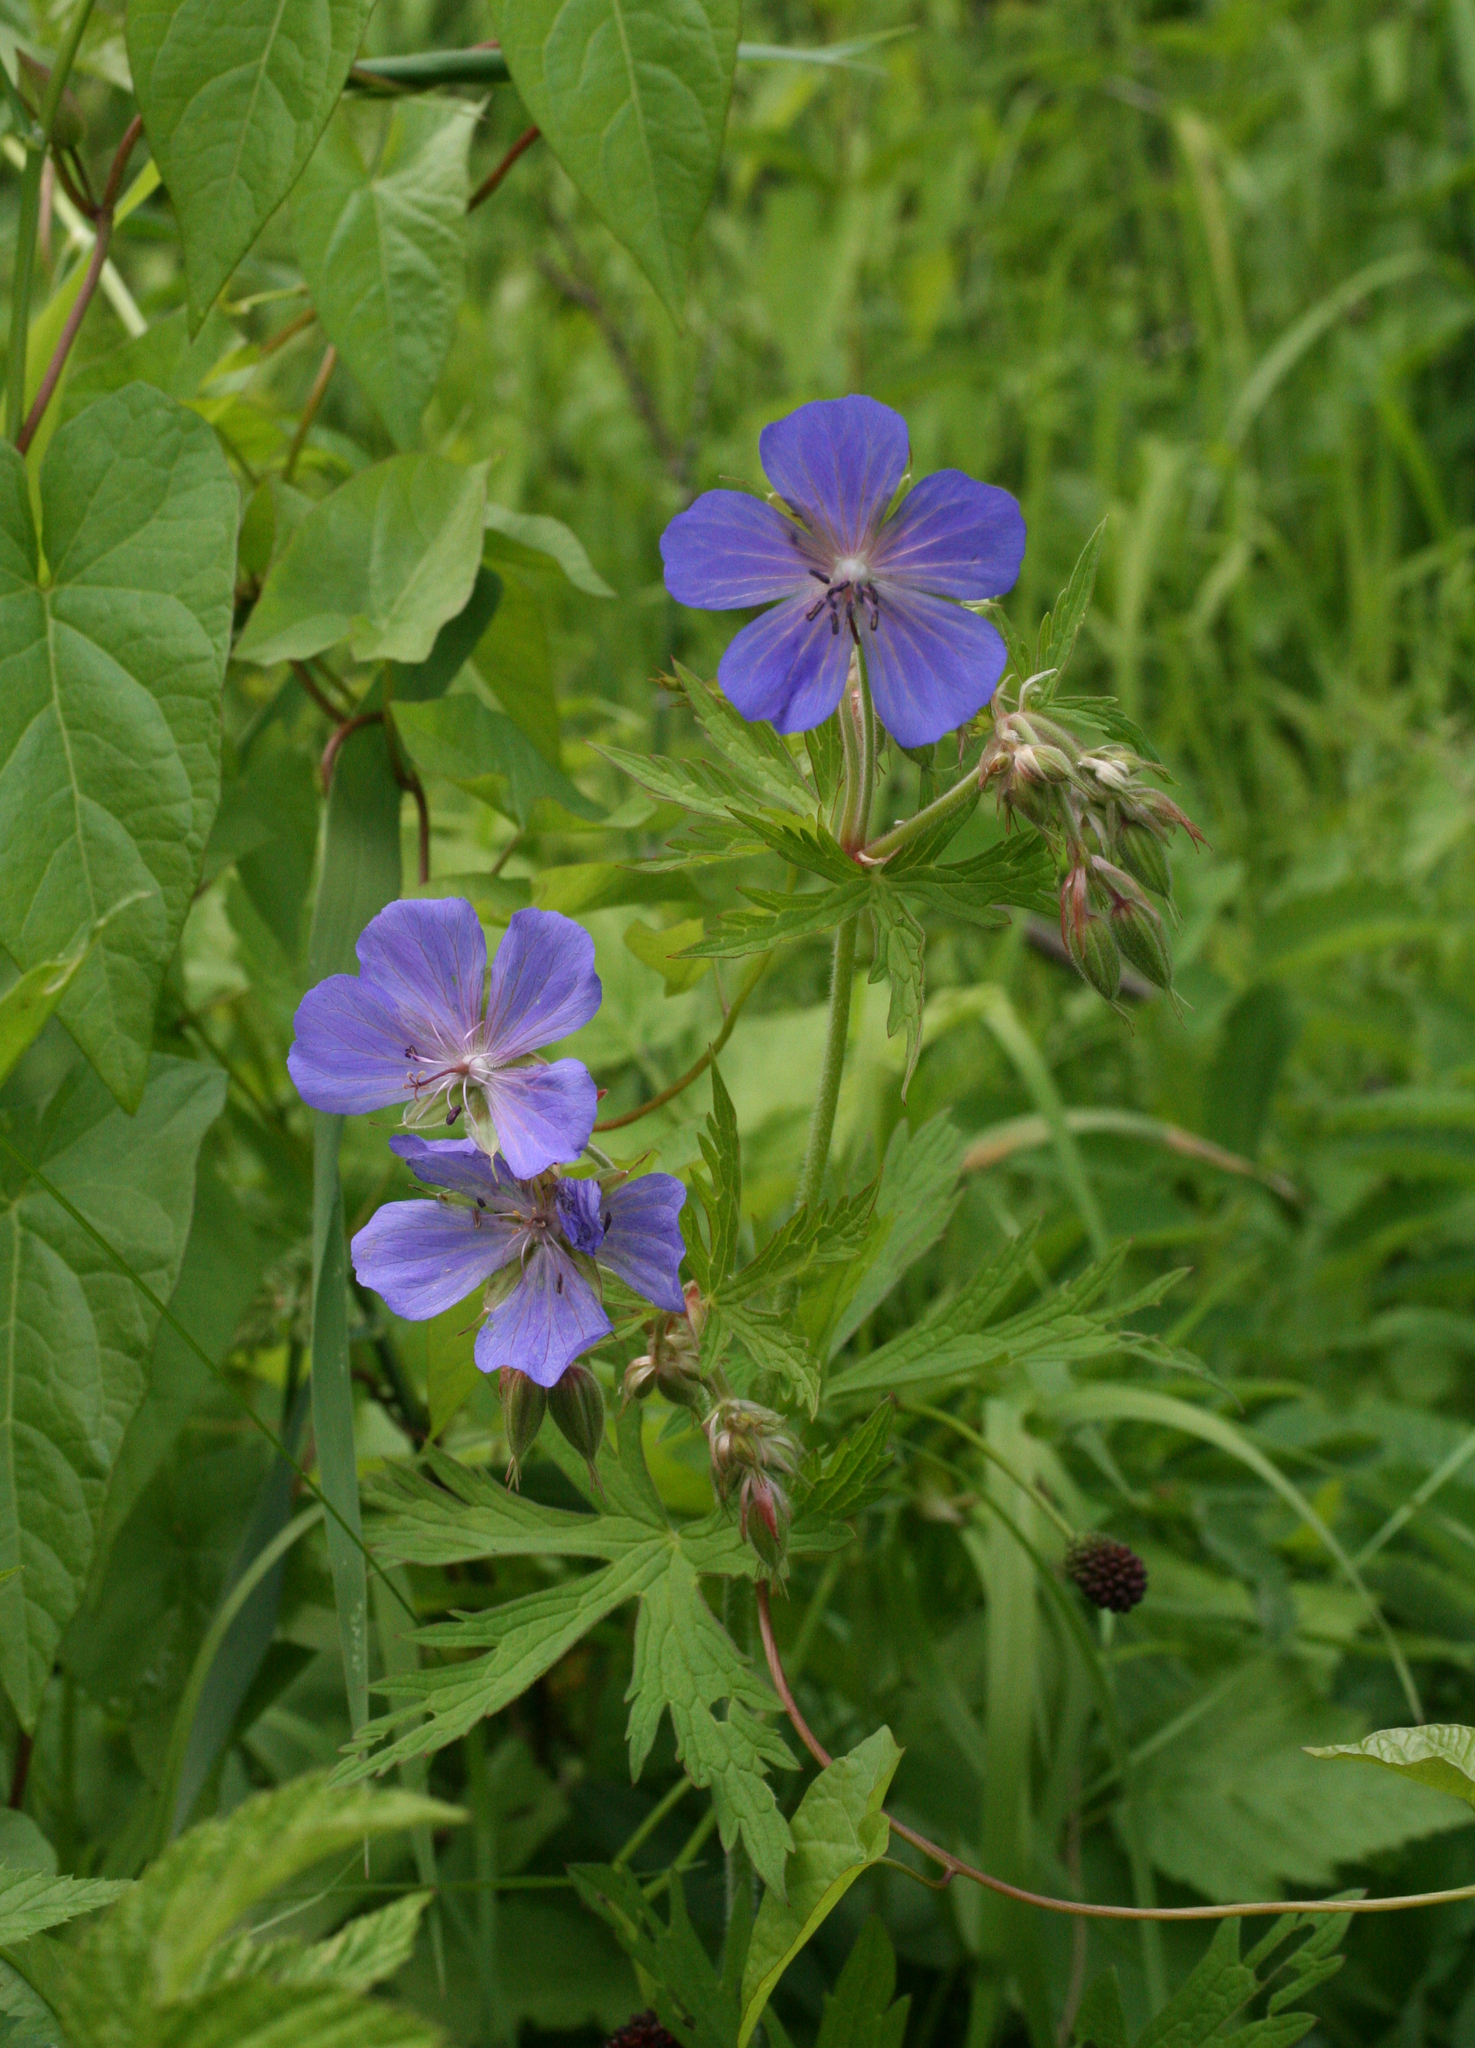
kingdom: Plantae
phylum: Tracheophyta
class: Magnoliopsida
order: Geraniales
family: Geraniaceae
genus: Geranium
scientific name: Geranium pratense
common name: Meadow crane's-bill
